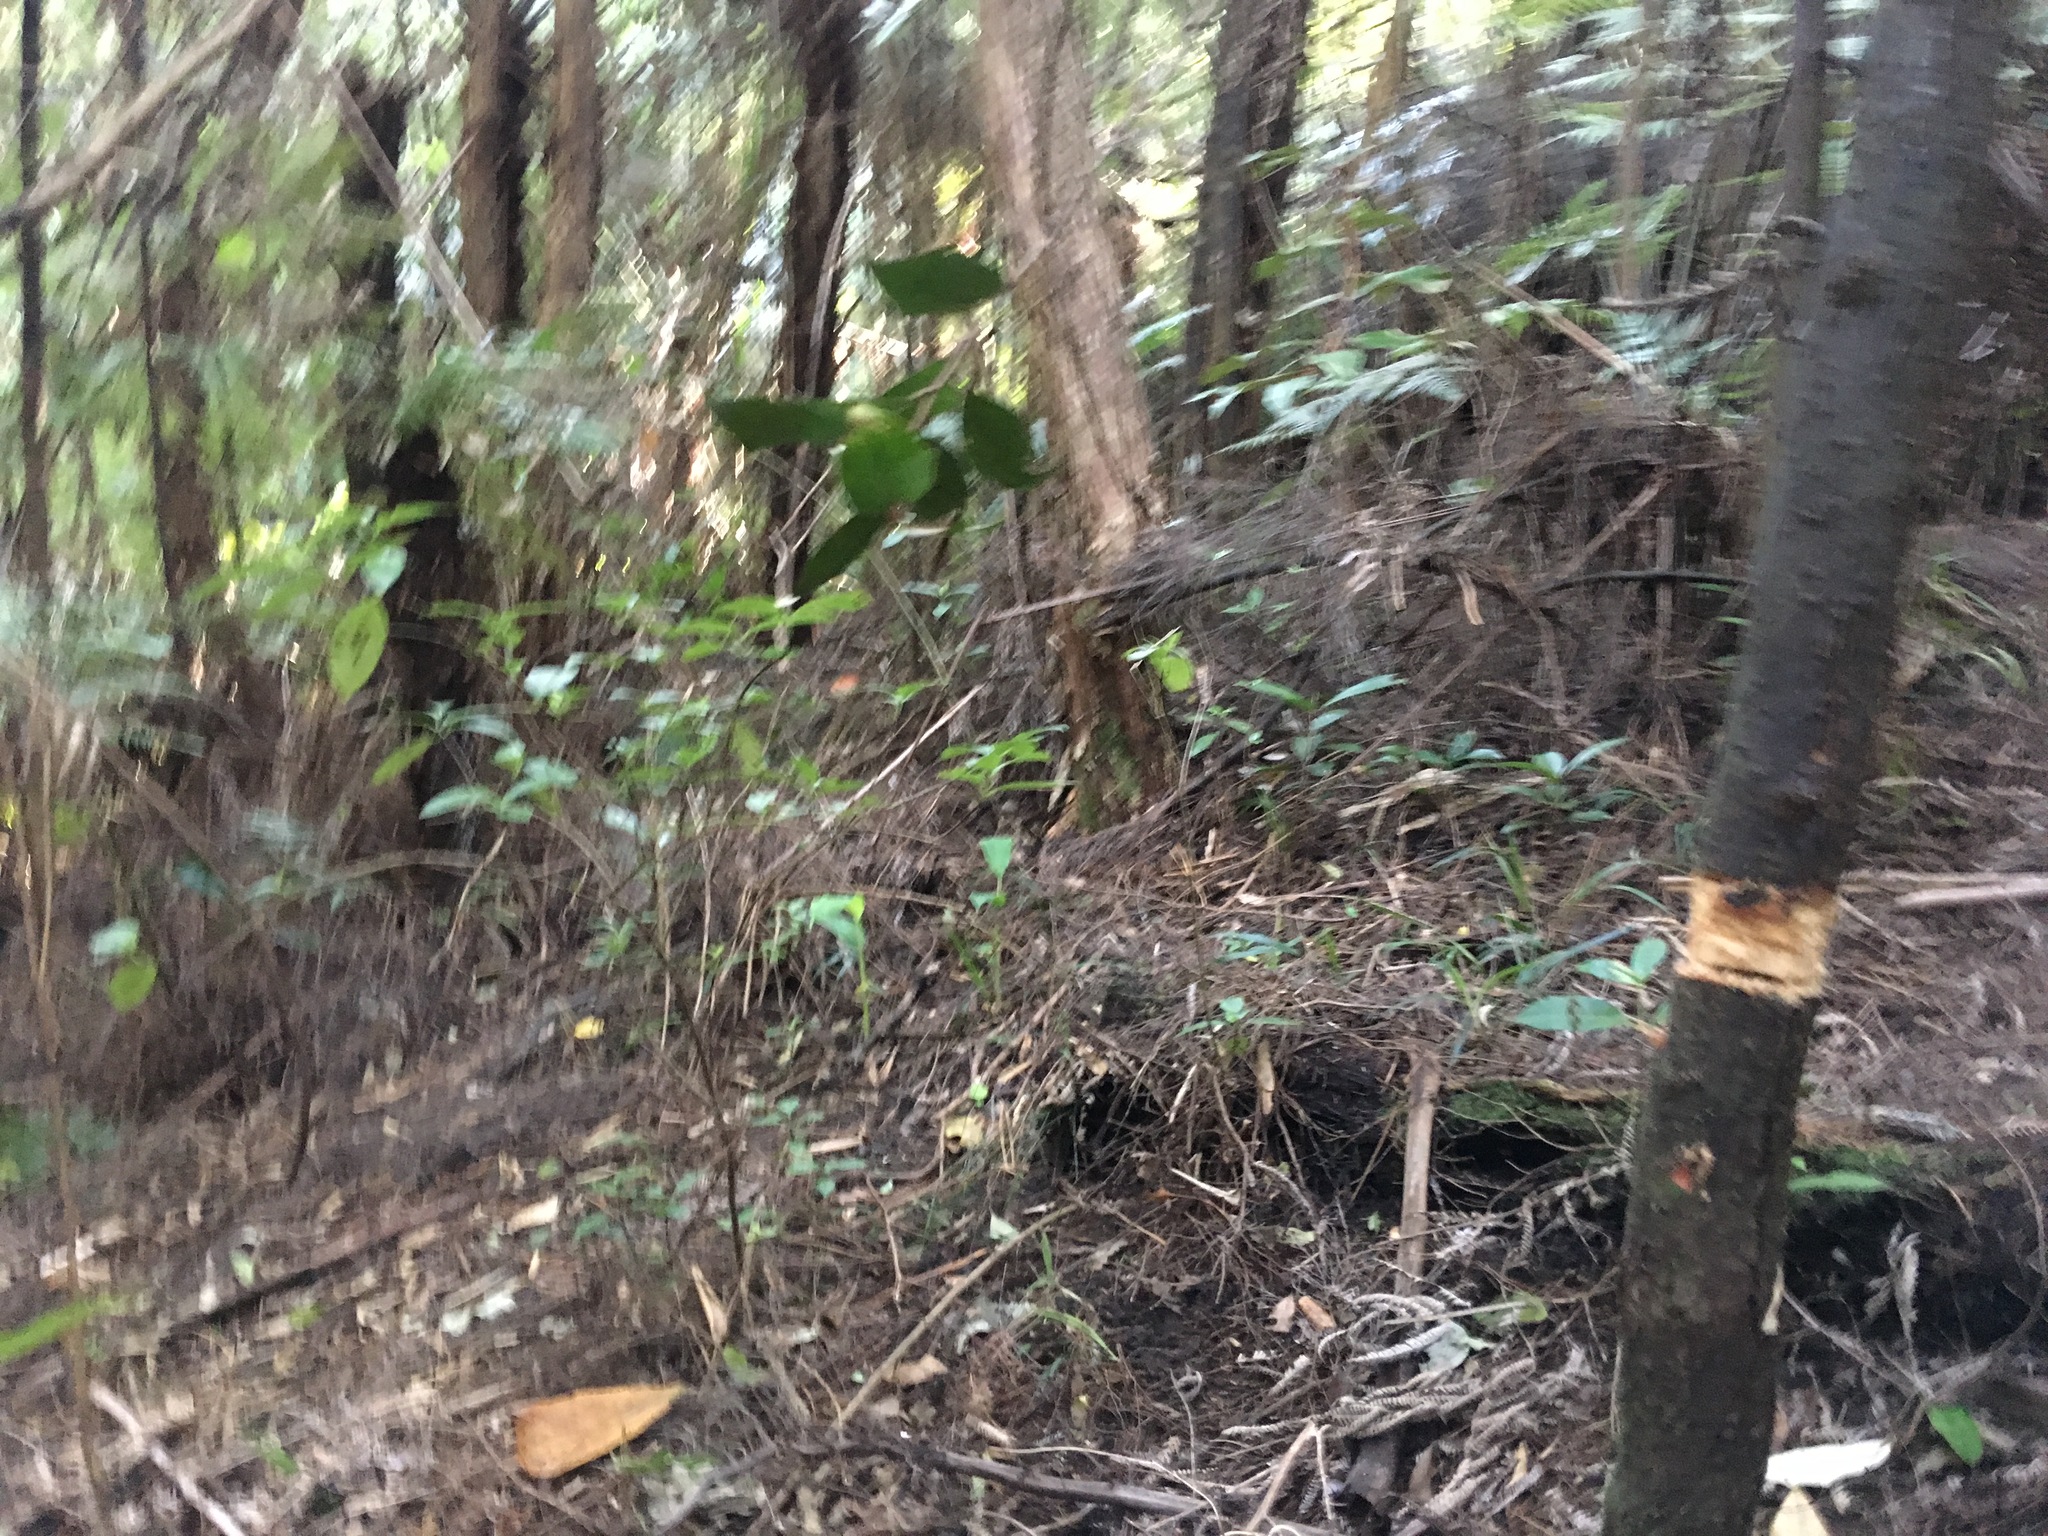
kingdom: Plantae
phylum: Tracheophyta
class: Magnoliopsida
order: Rosales
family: Elaeagnaceae
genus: Elaeagnus
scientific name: Elaeagnus reflexa
